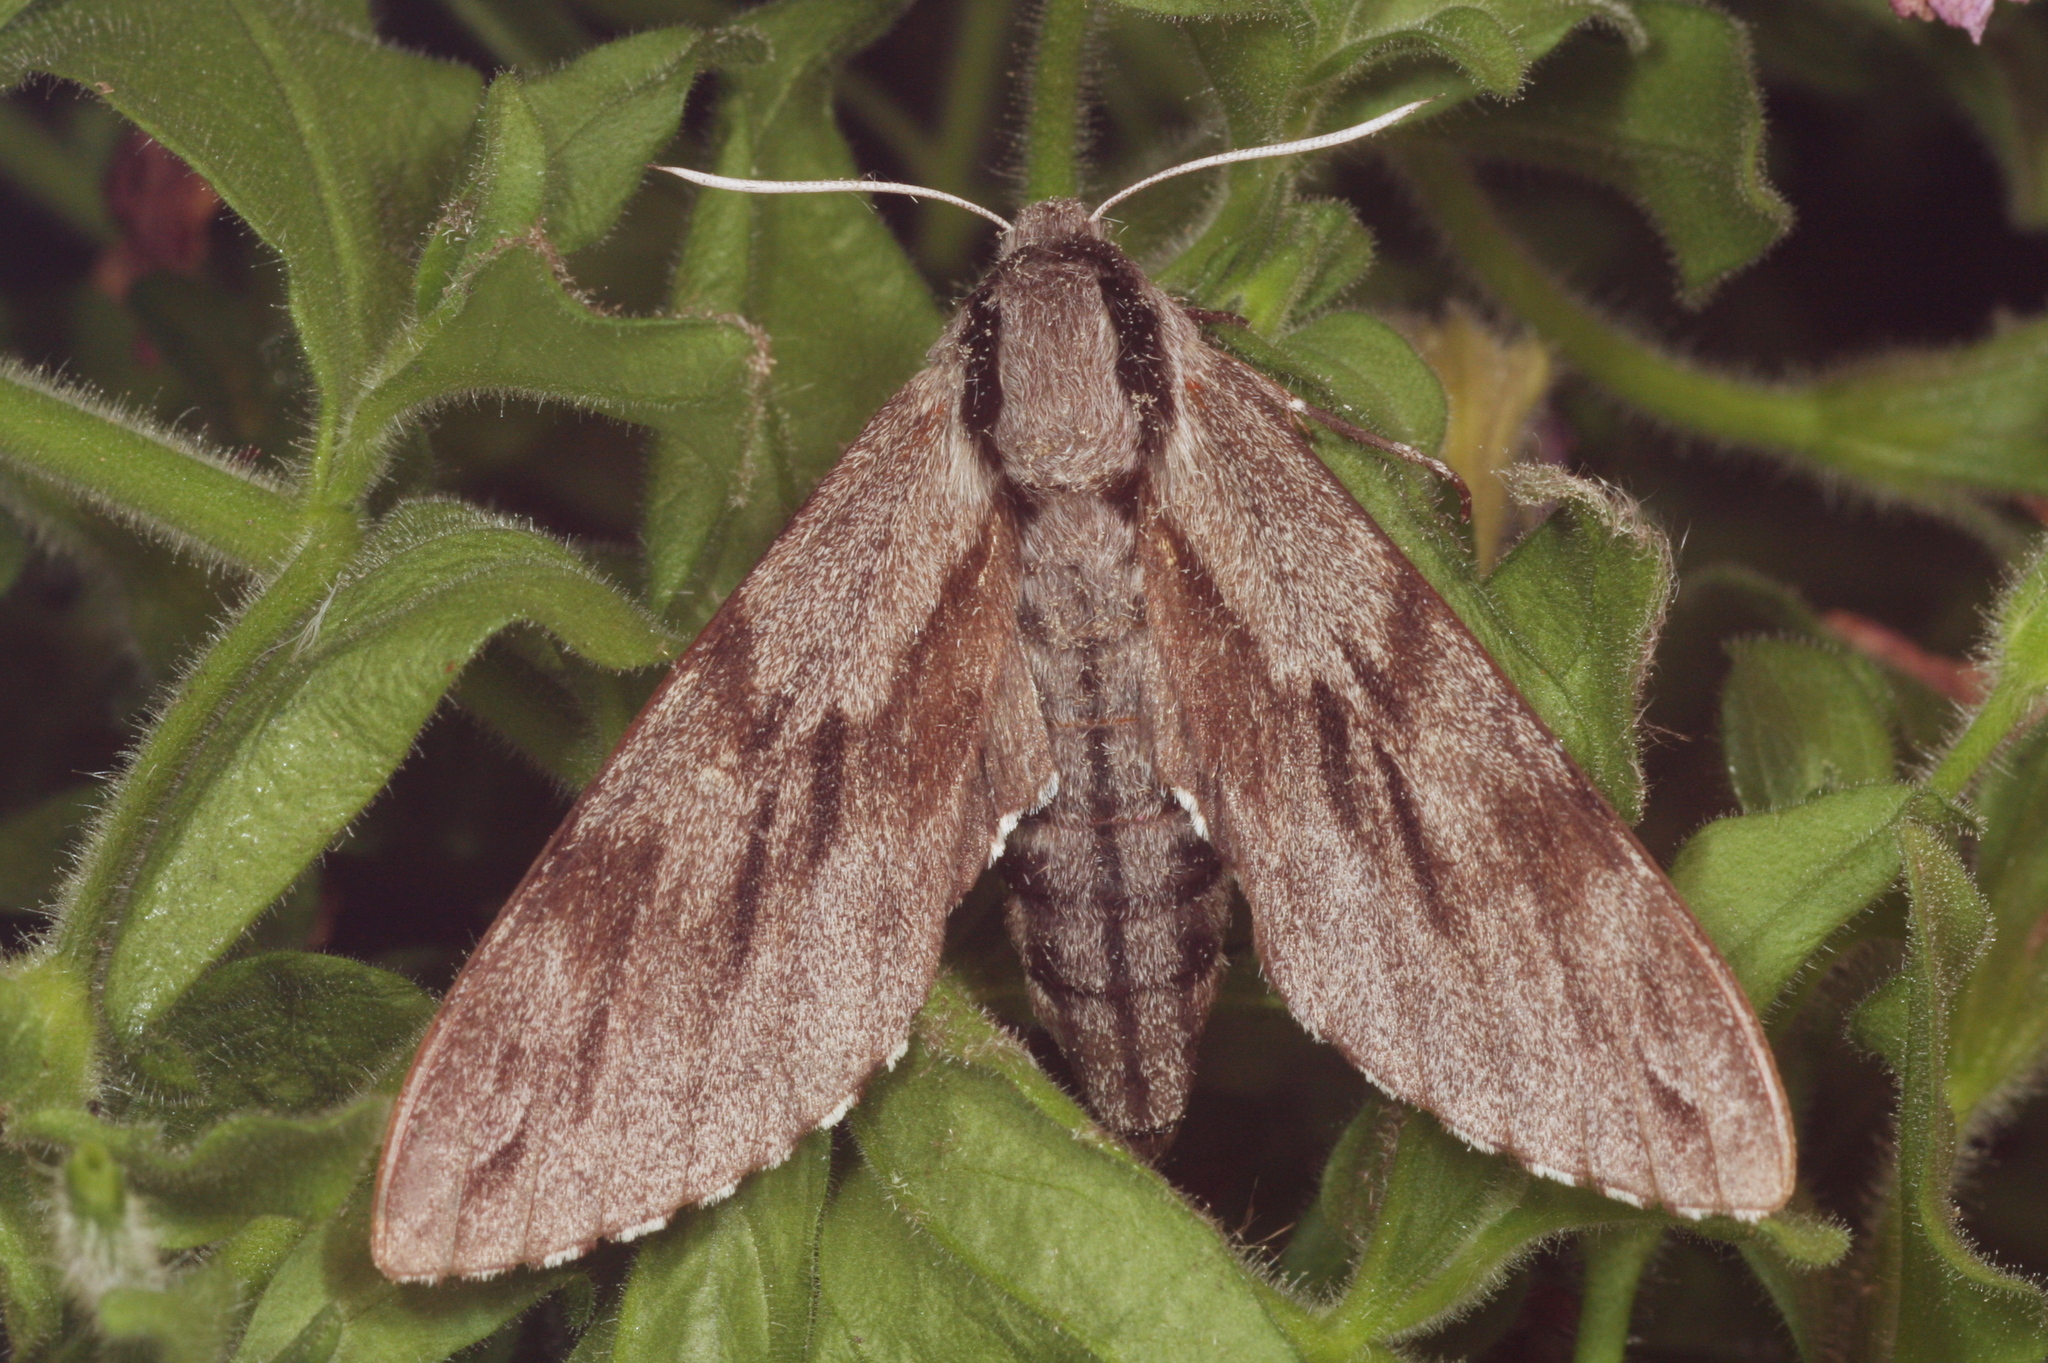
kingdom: Animalia
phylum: Arthropoda
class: Insecta
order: Lepidoptera
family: Sphingidae
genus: Sphinx
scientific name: Sphinx pinastri
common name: Pine hawk-moth
